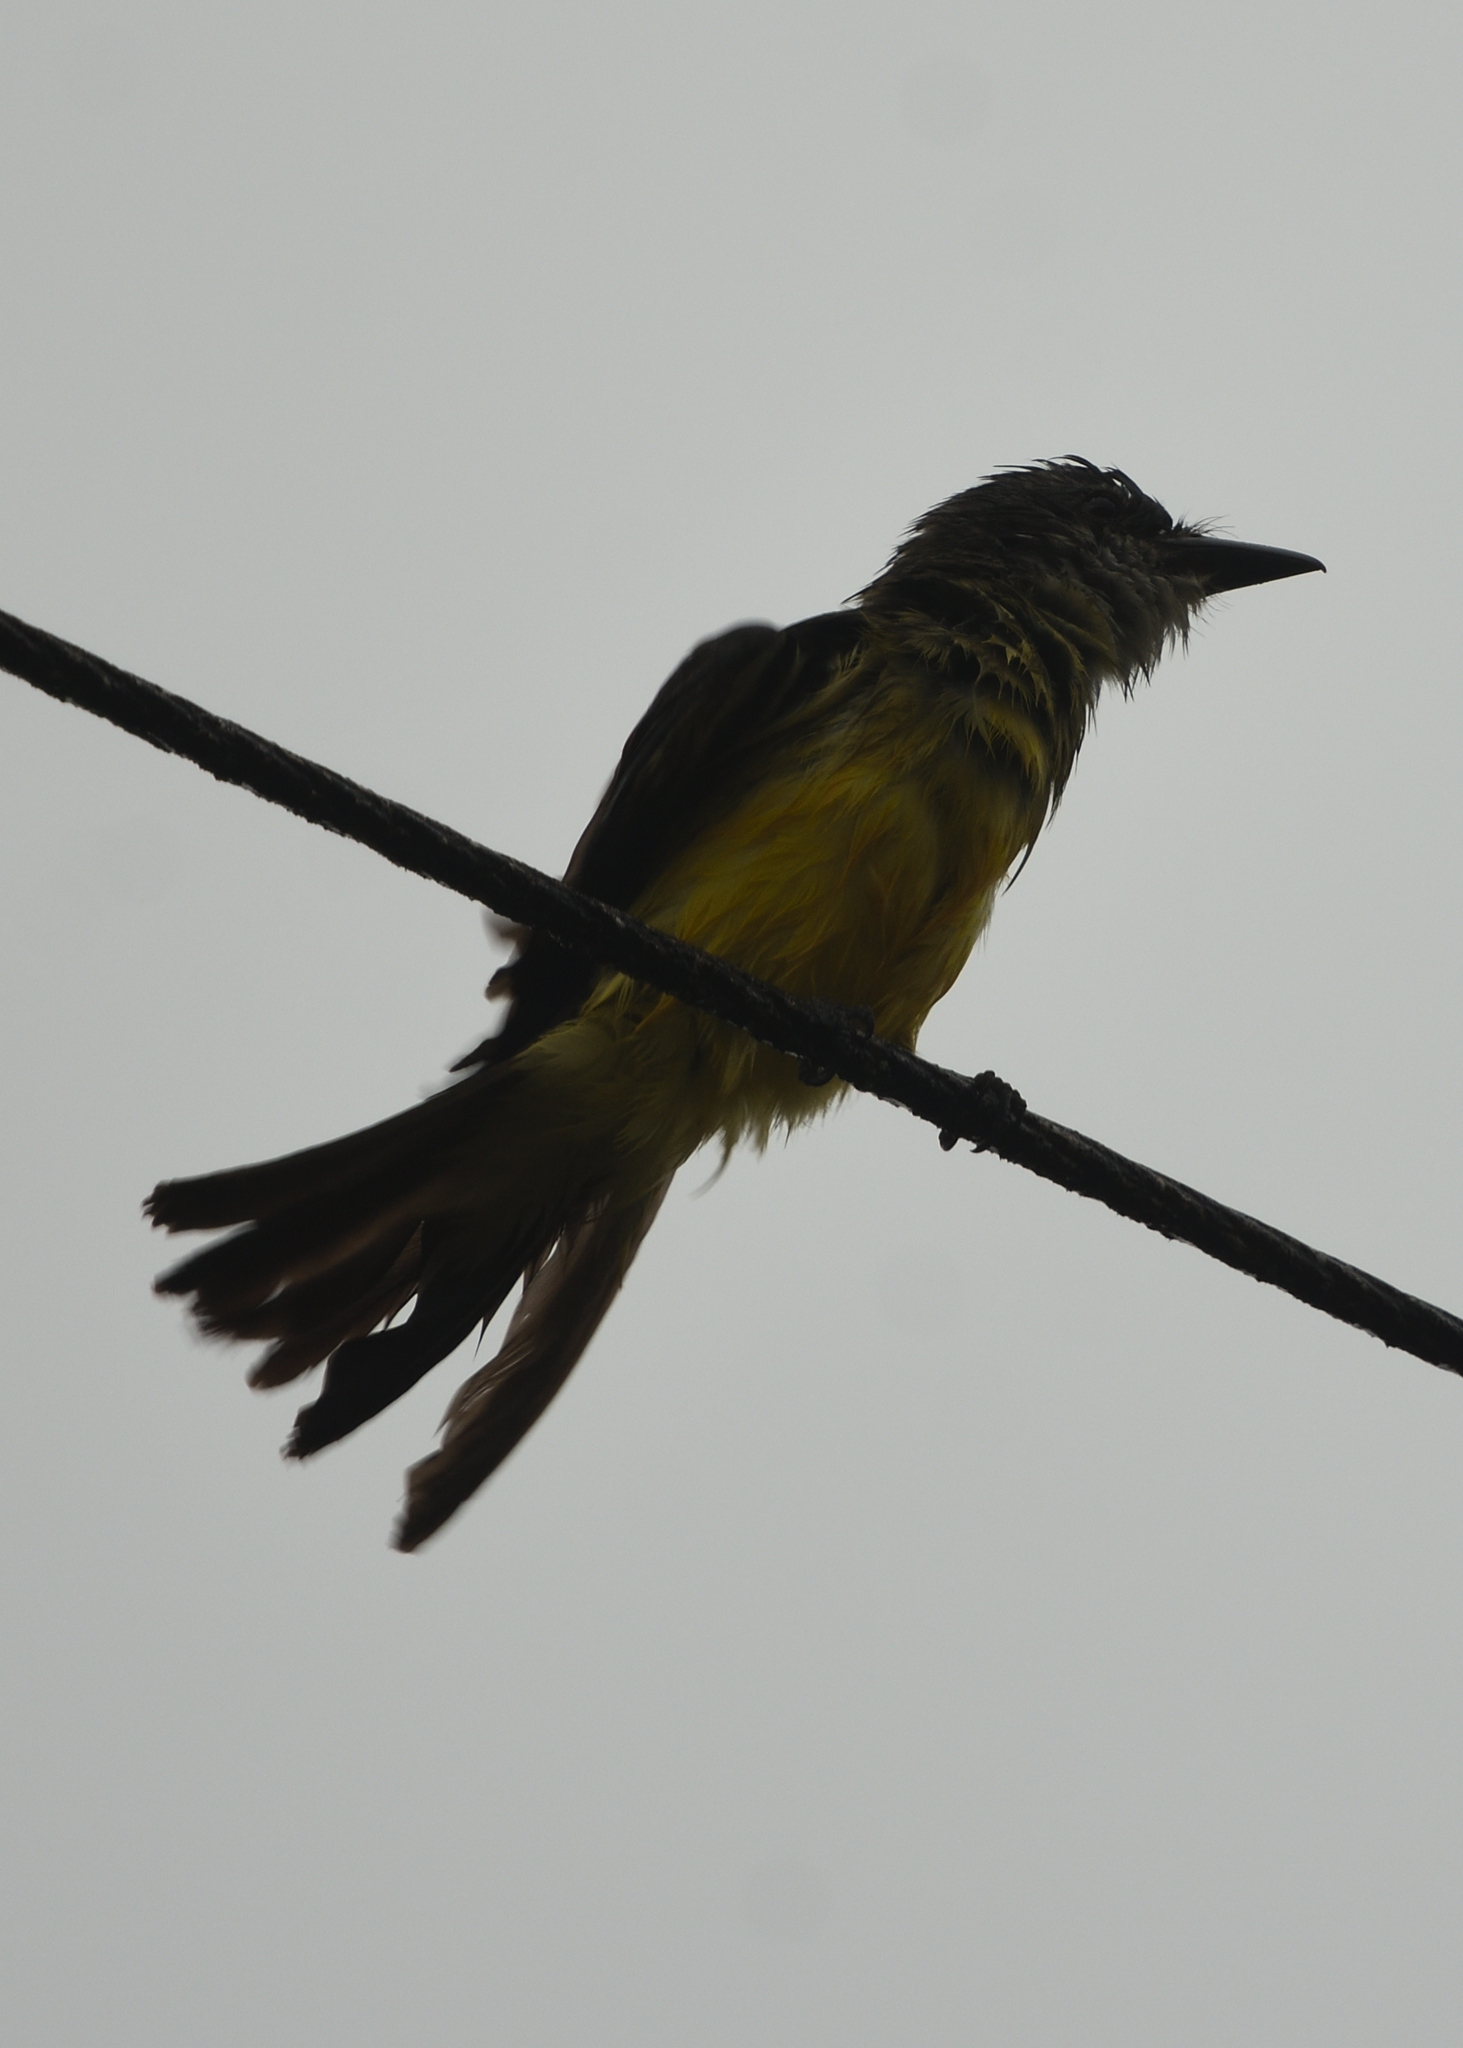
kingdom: Animalia
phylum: Chordata
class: Aves
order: Passeriformes
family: Tyrannidae
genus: Tyrannus
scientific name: Tyrannus melancholicus
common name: Tropical kingbird
